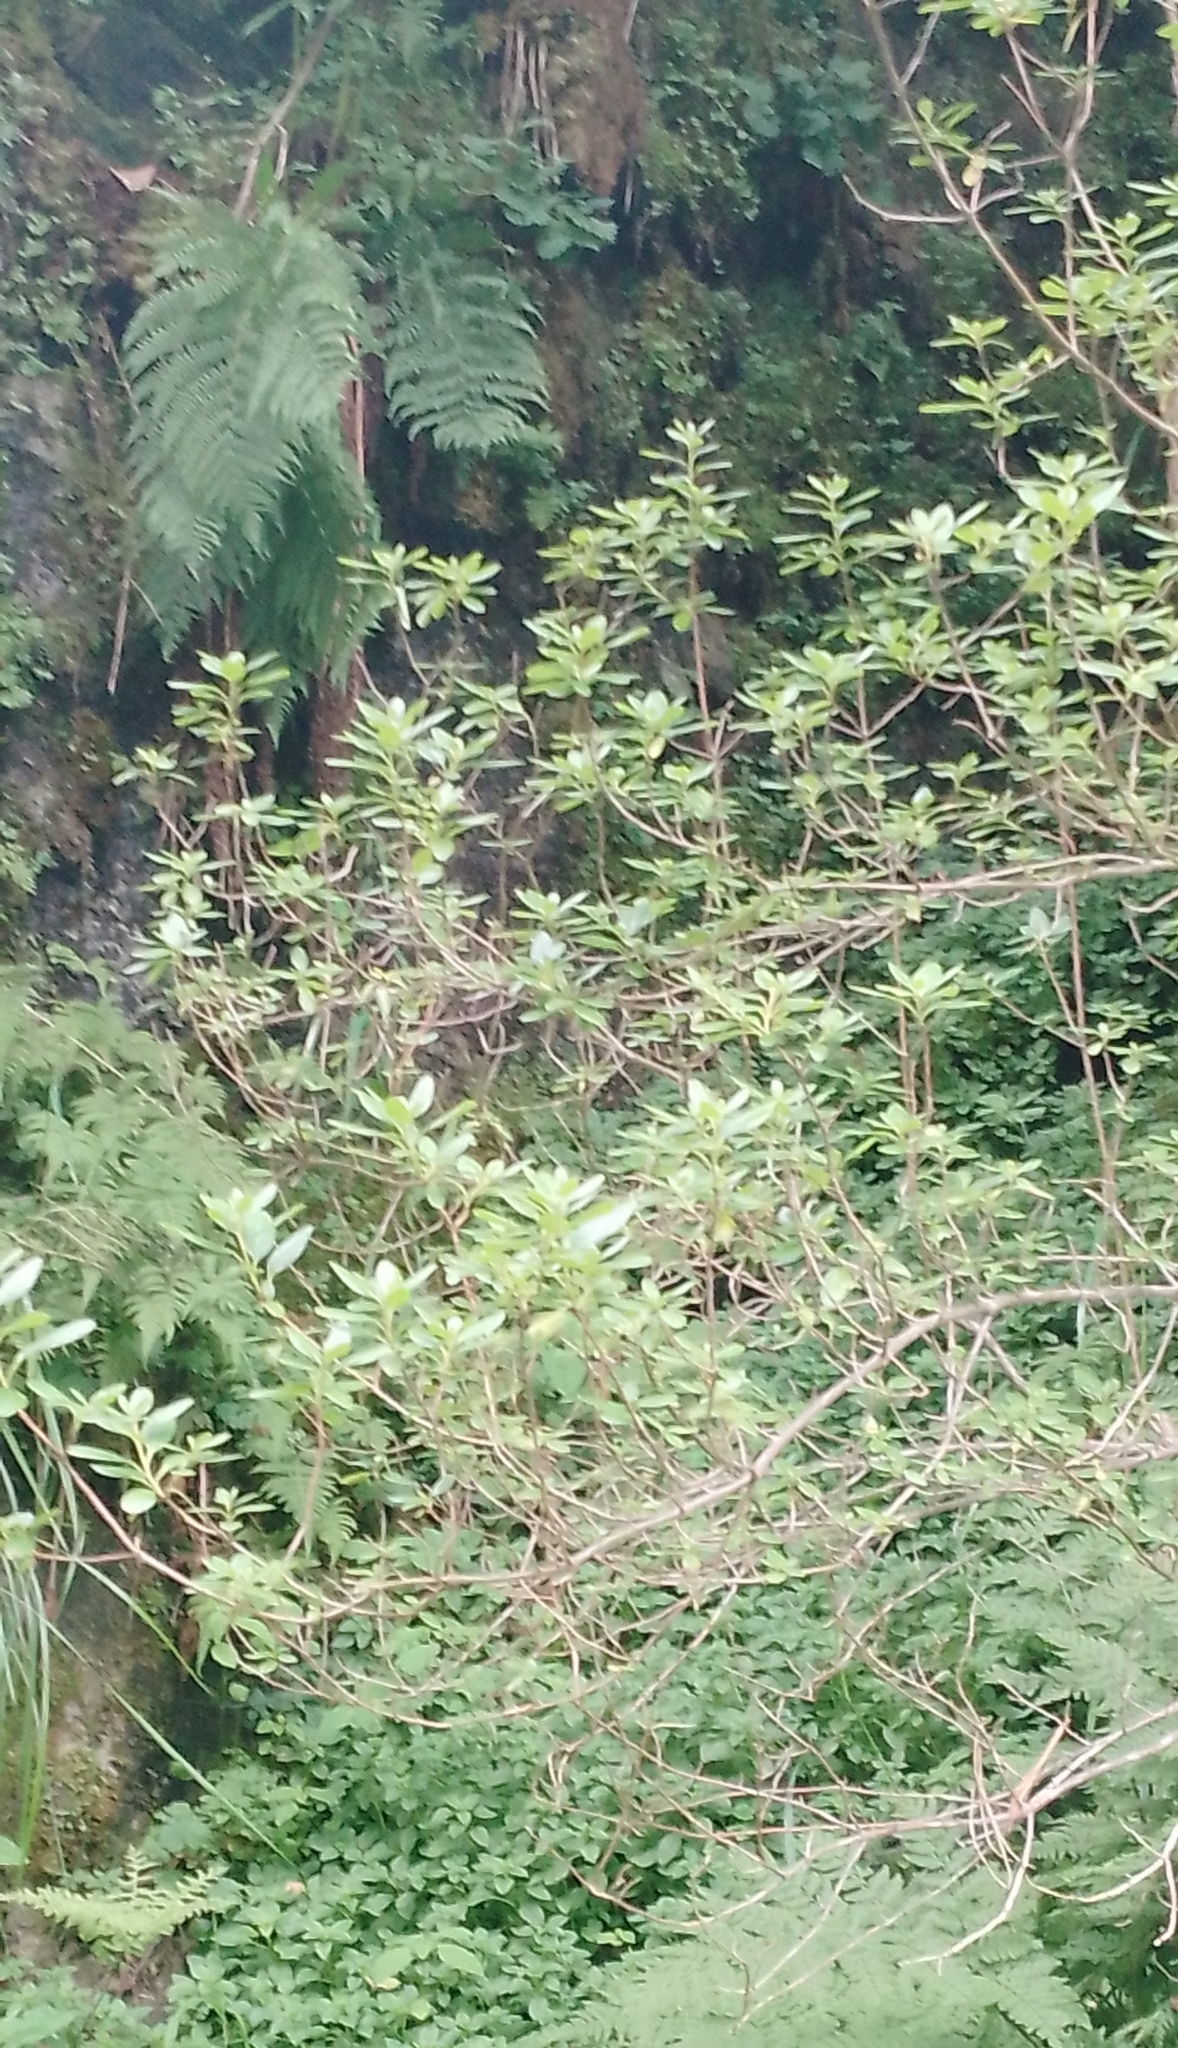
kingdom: Plantae
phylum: Tracheophyta
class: Magnoliopsida
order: Ericales
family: Ericaceae
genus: Rhododendron
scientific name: Rhododendron dauricum
